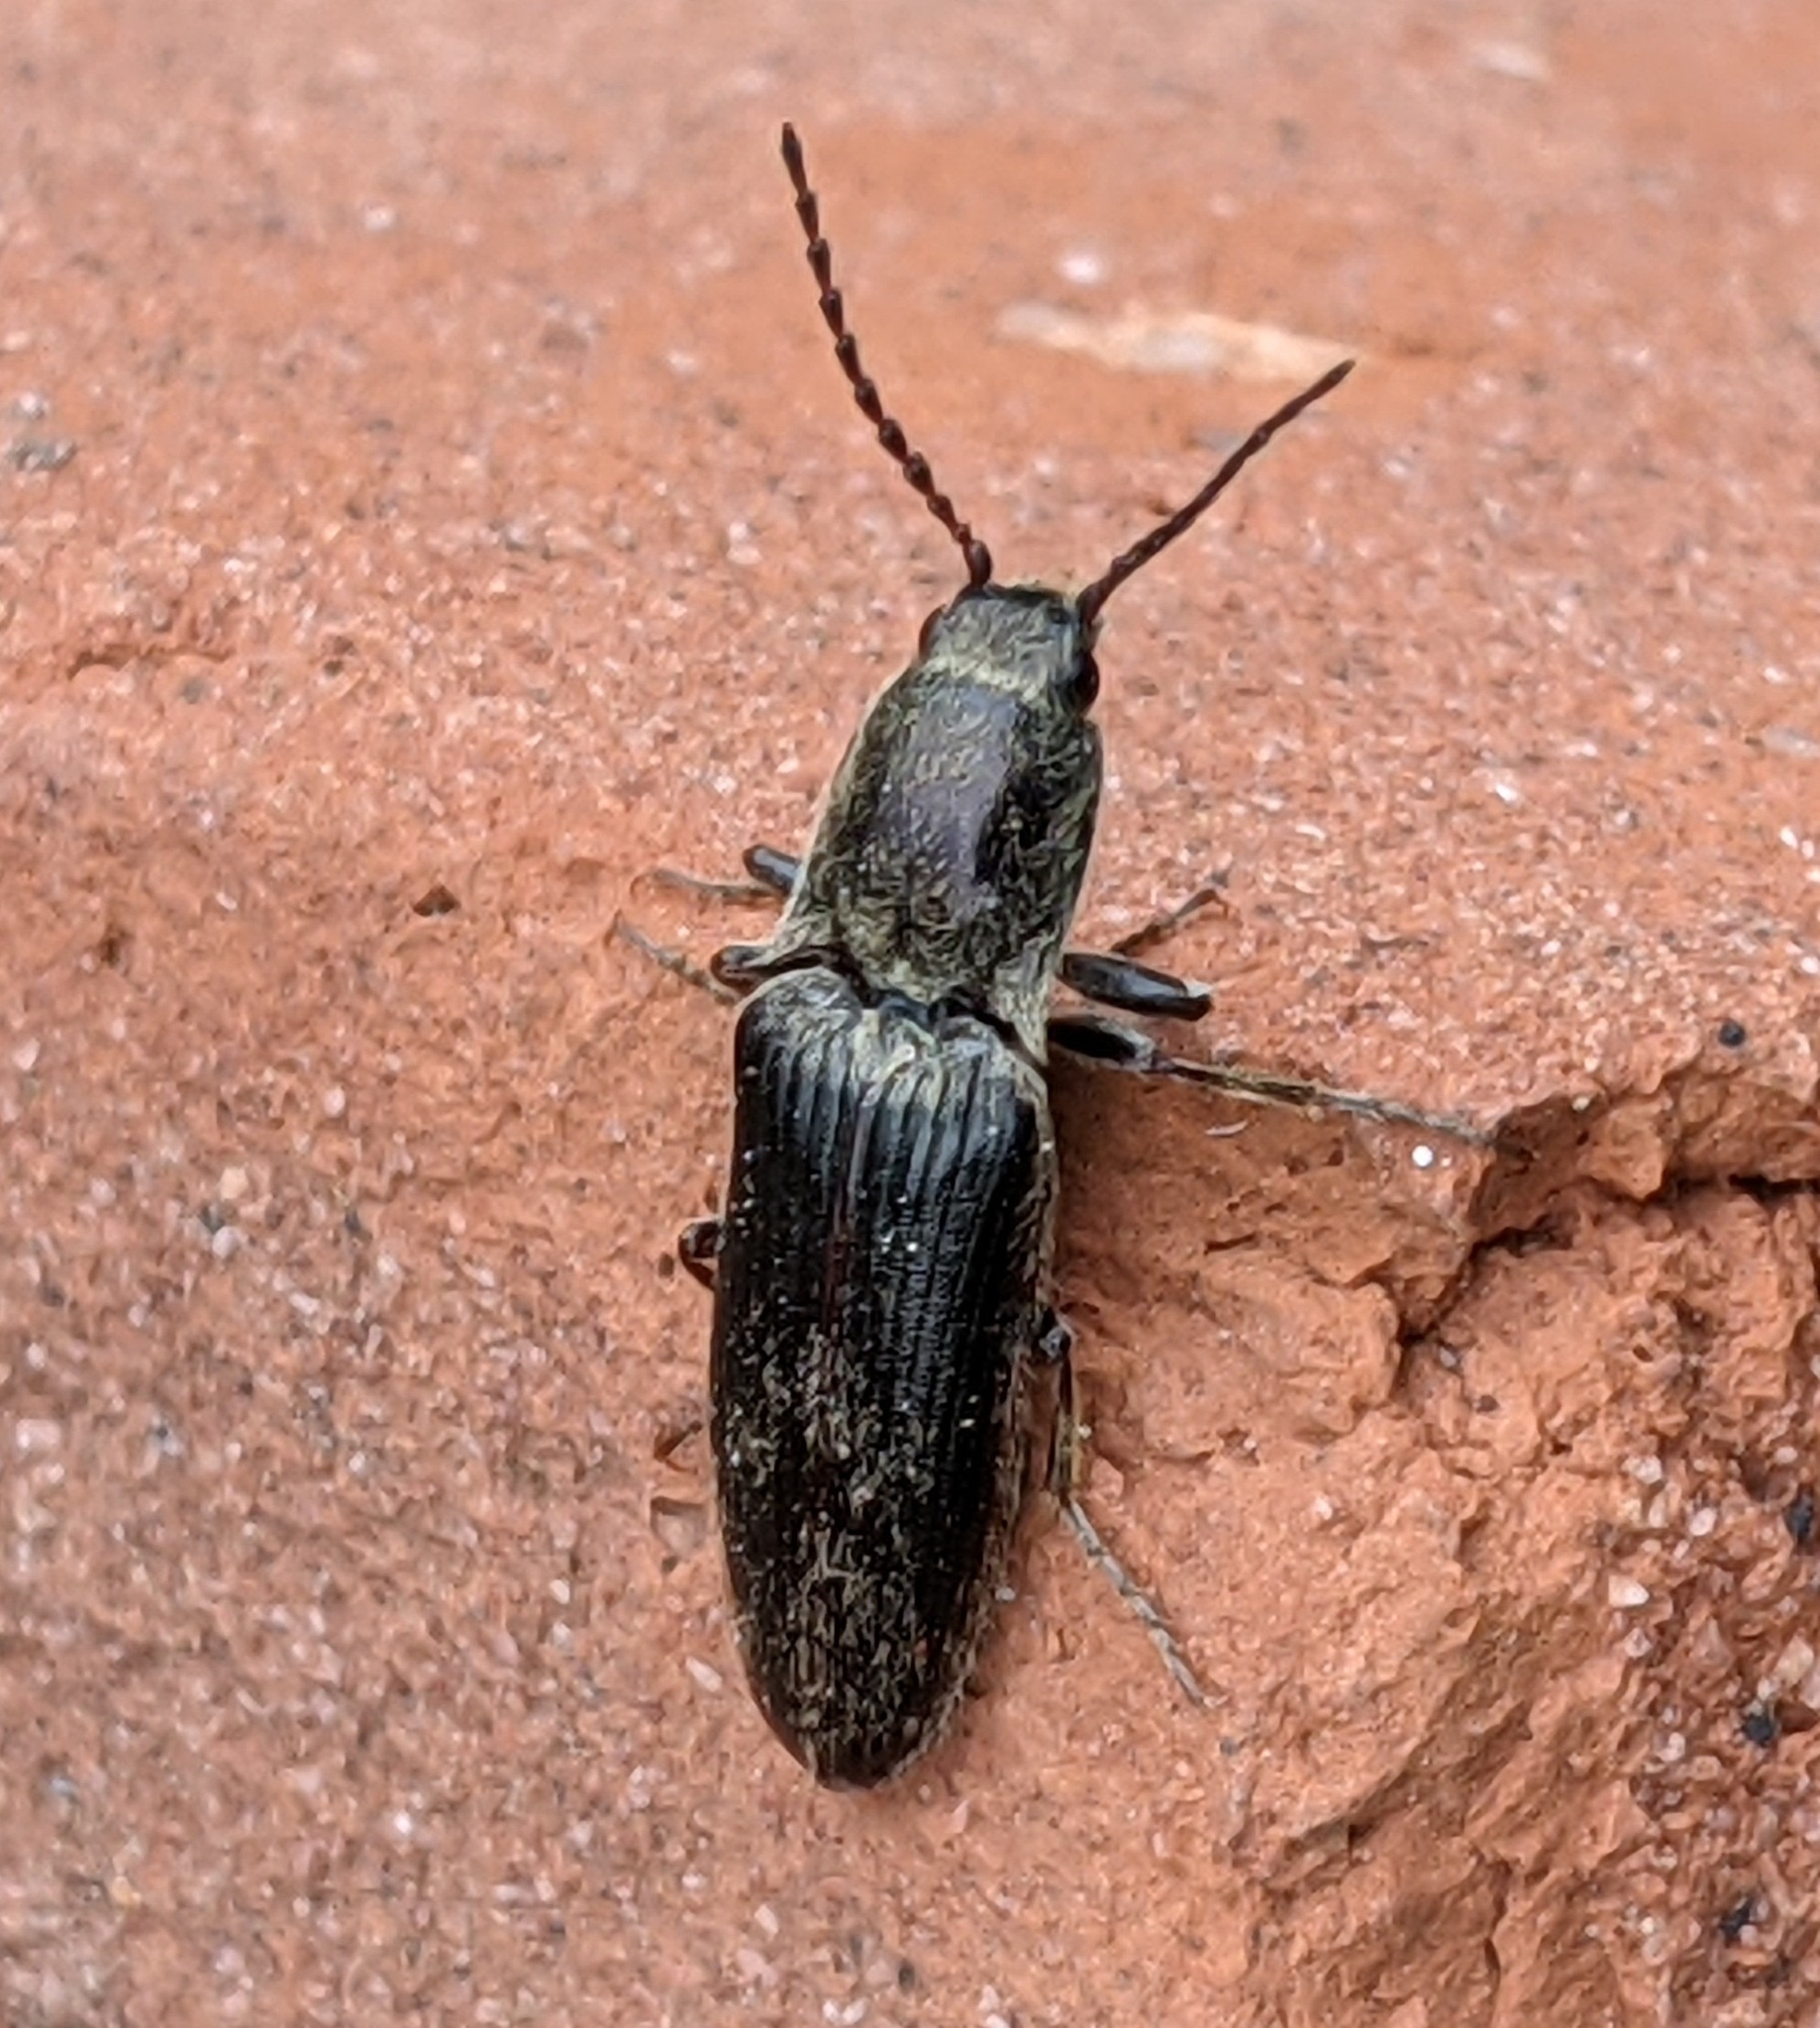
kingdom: Animalia
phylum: Arthropoda
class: Insecta
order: Coleoptera
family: Elateridae
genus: Sylvanelater
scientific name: Sylvanelater cylindriformis
